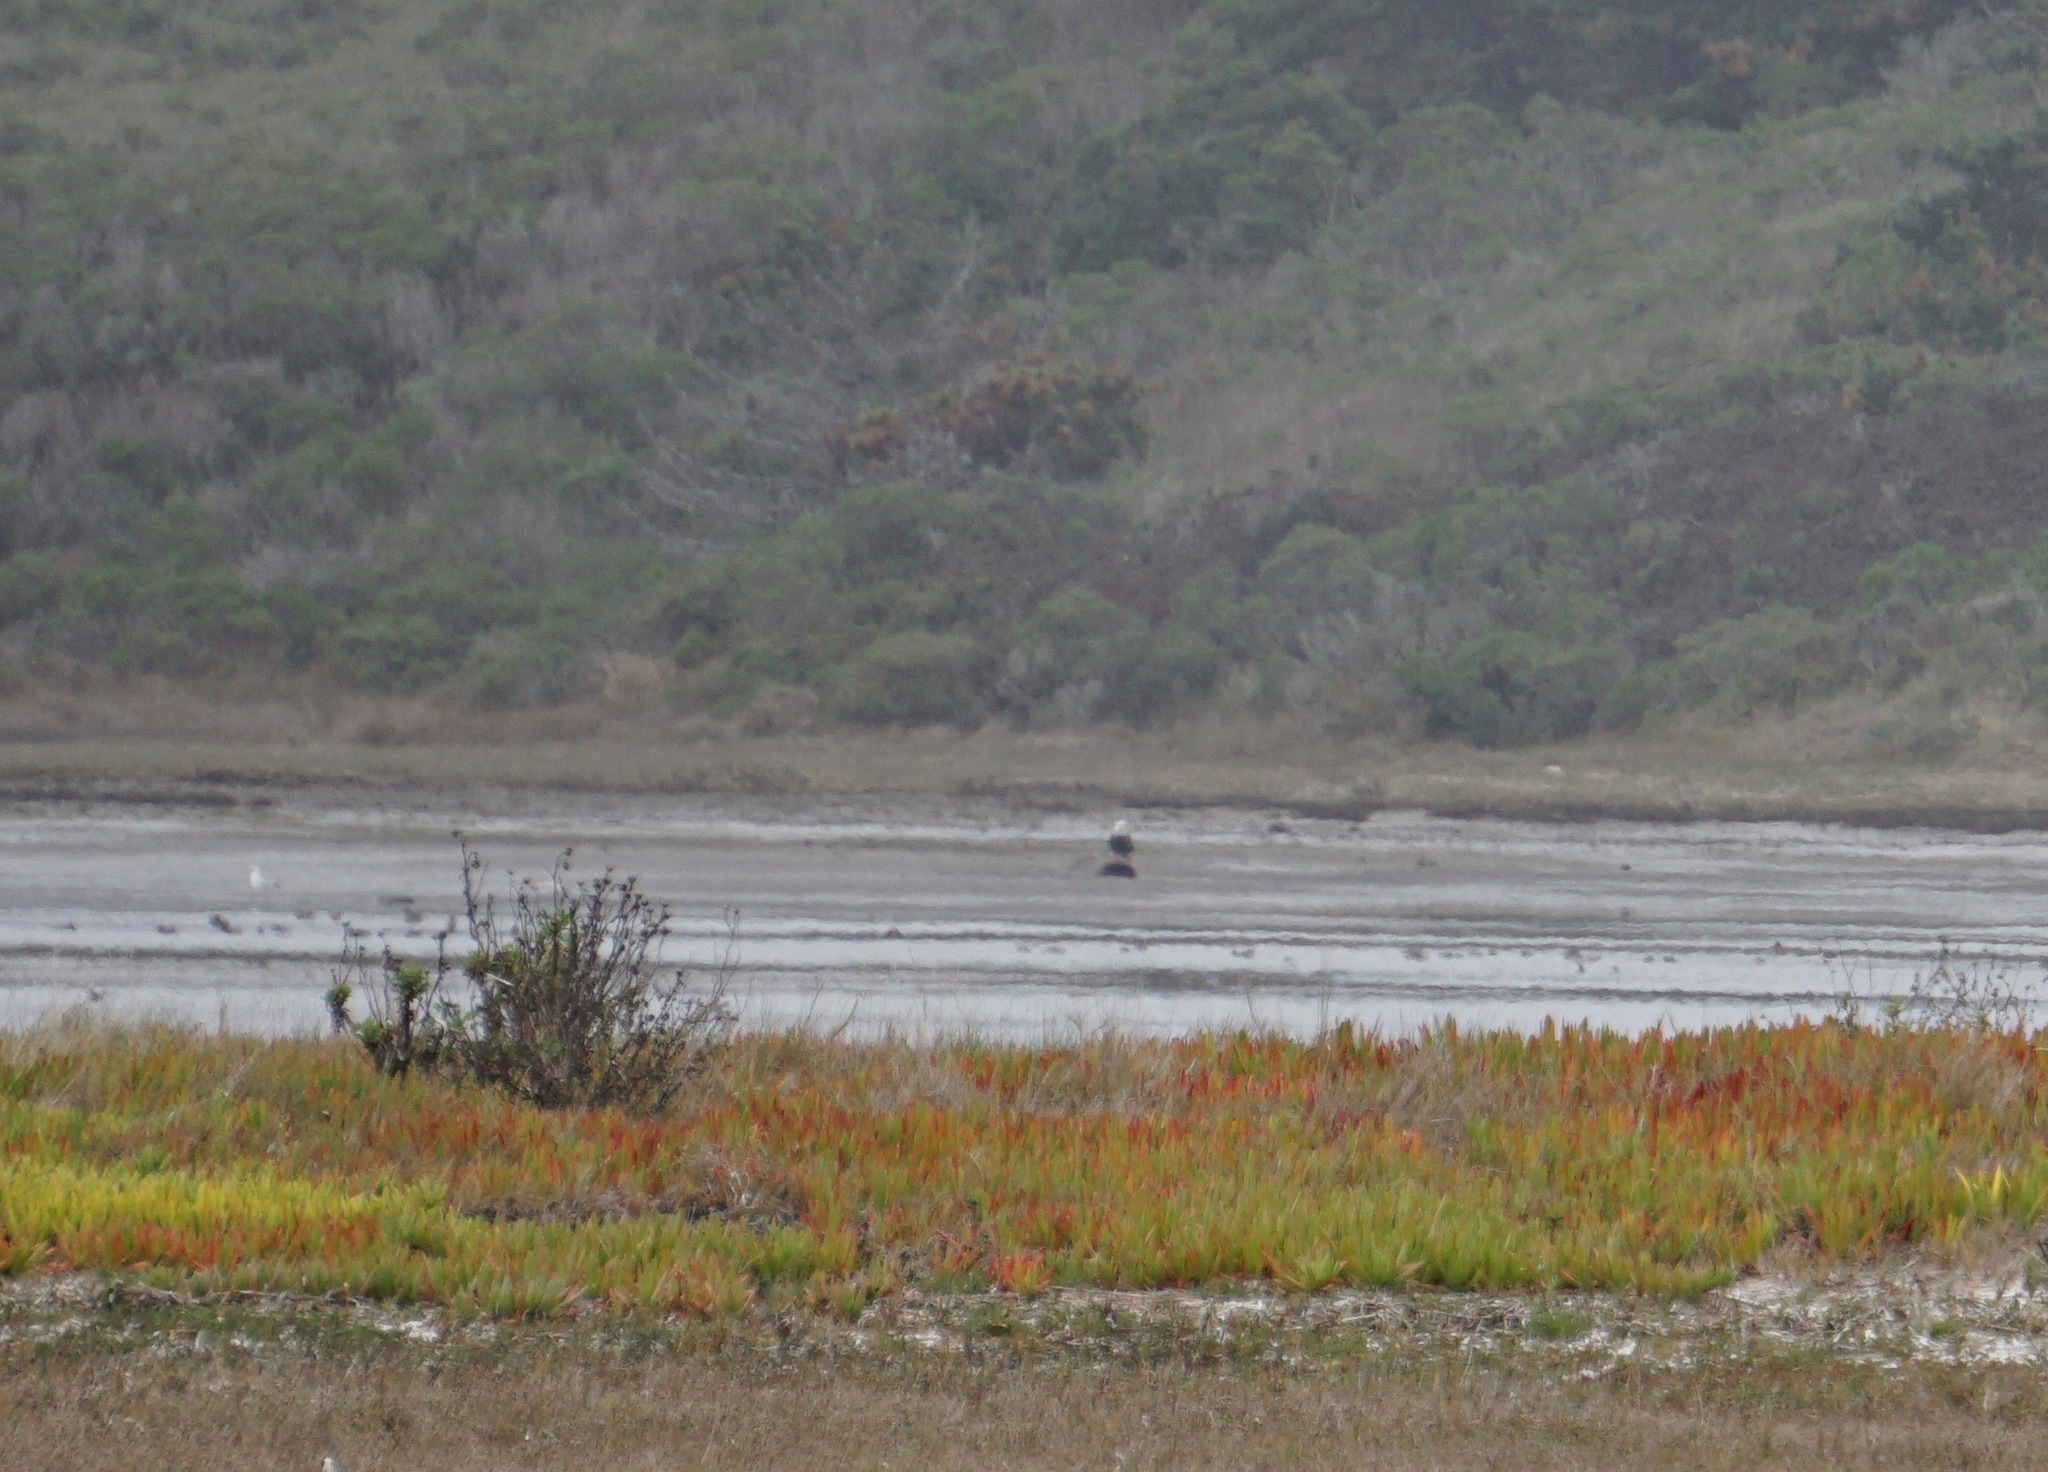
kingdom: Animalia
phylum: Chordata
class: Aves
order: Accipitriformes
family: Accipitridae
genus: Haliaeetus
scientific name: Haliaeetus leucocephalus
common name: Bald eagle
